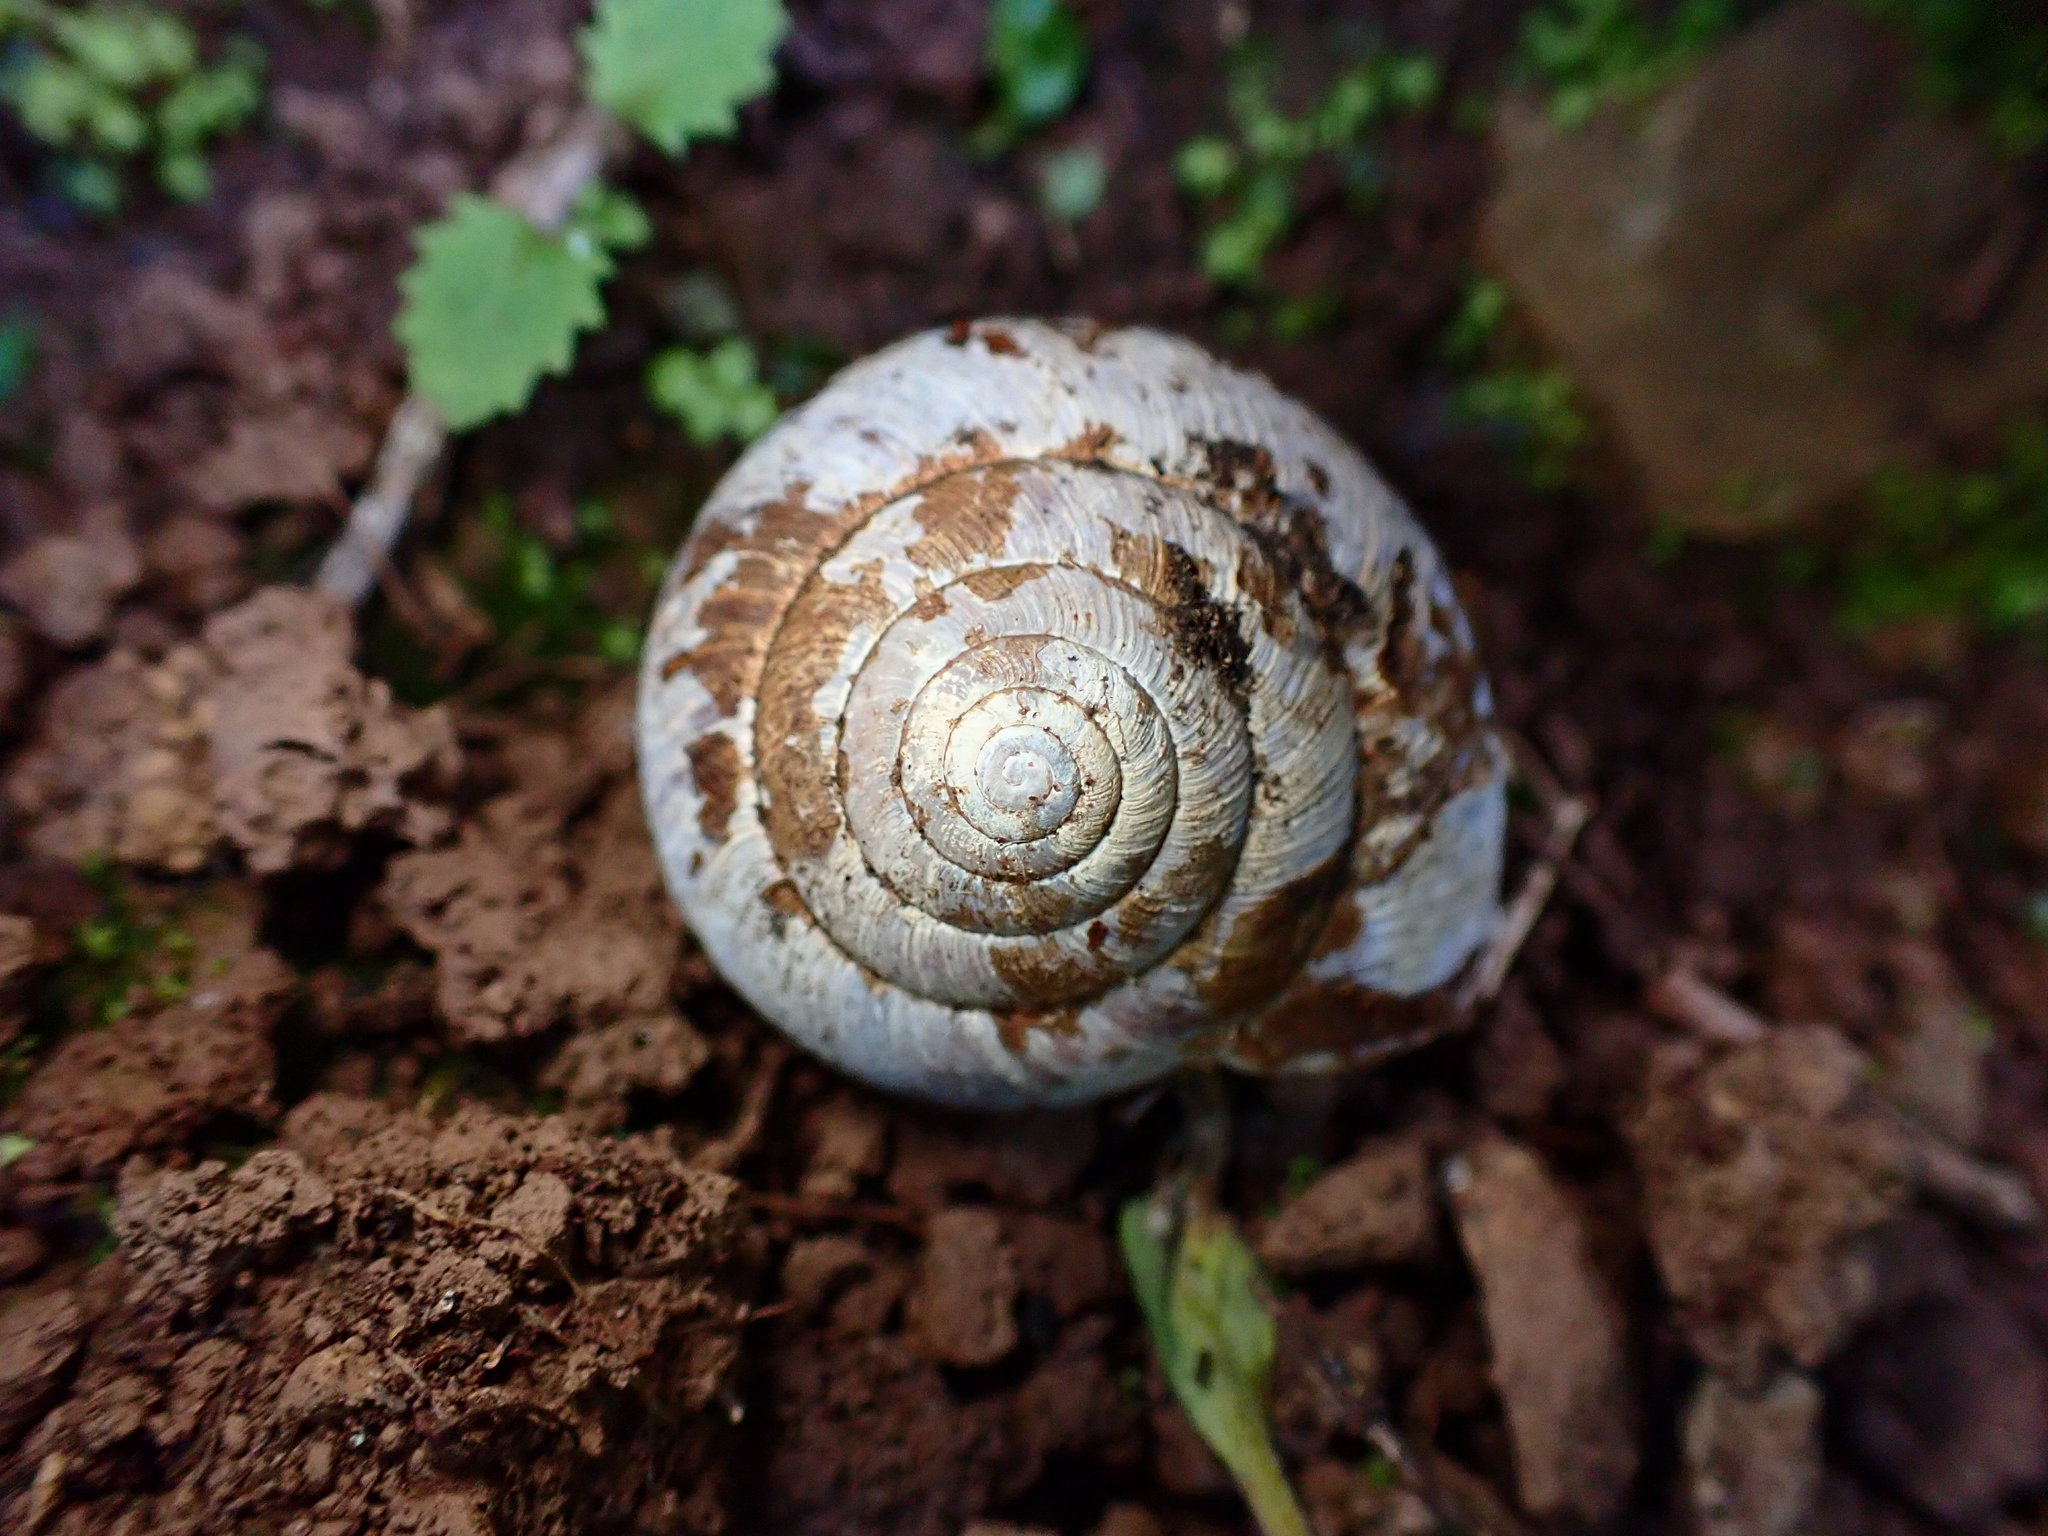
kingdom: Animalia
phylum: Mollusca
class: Gastropoda
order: Stylommatophora
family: Xanthonychidae
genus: Helminthoglypta
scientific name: Helminthoglypta arrosa
